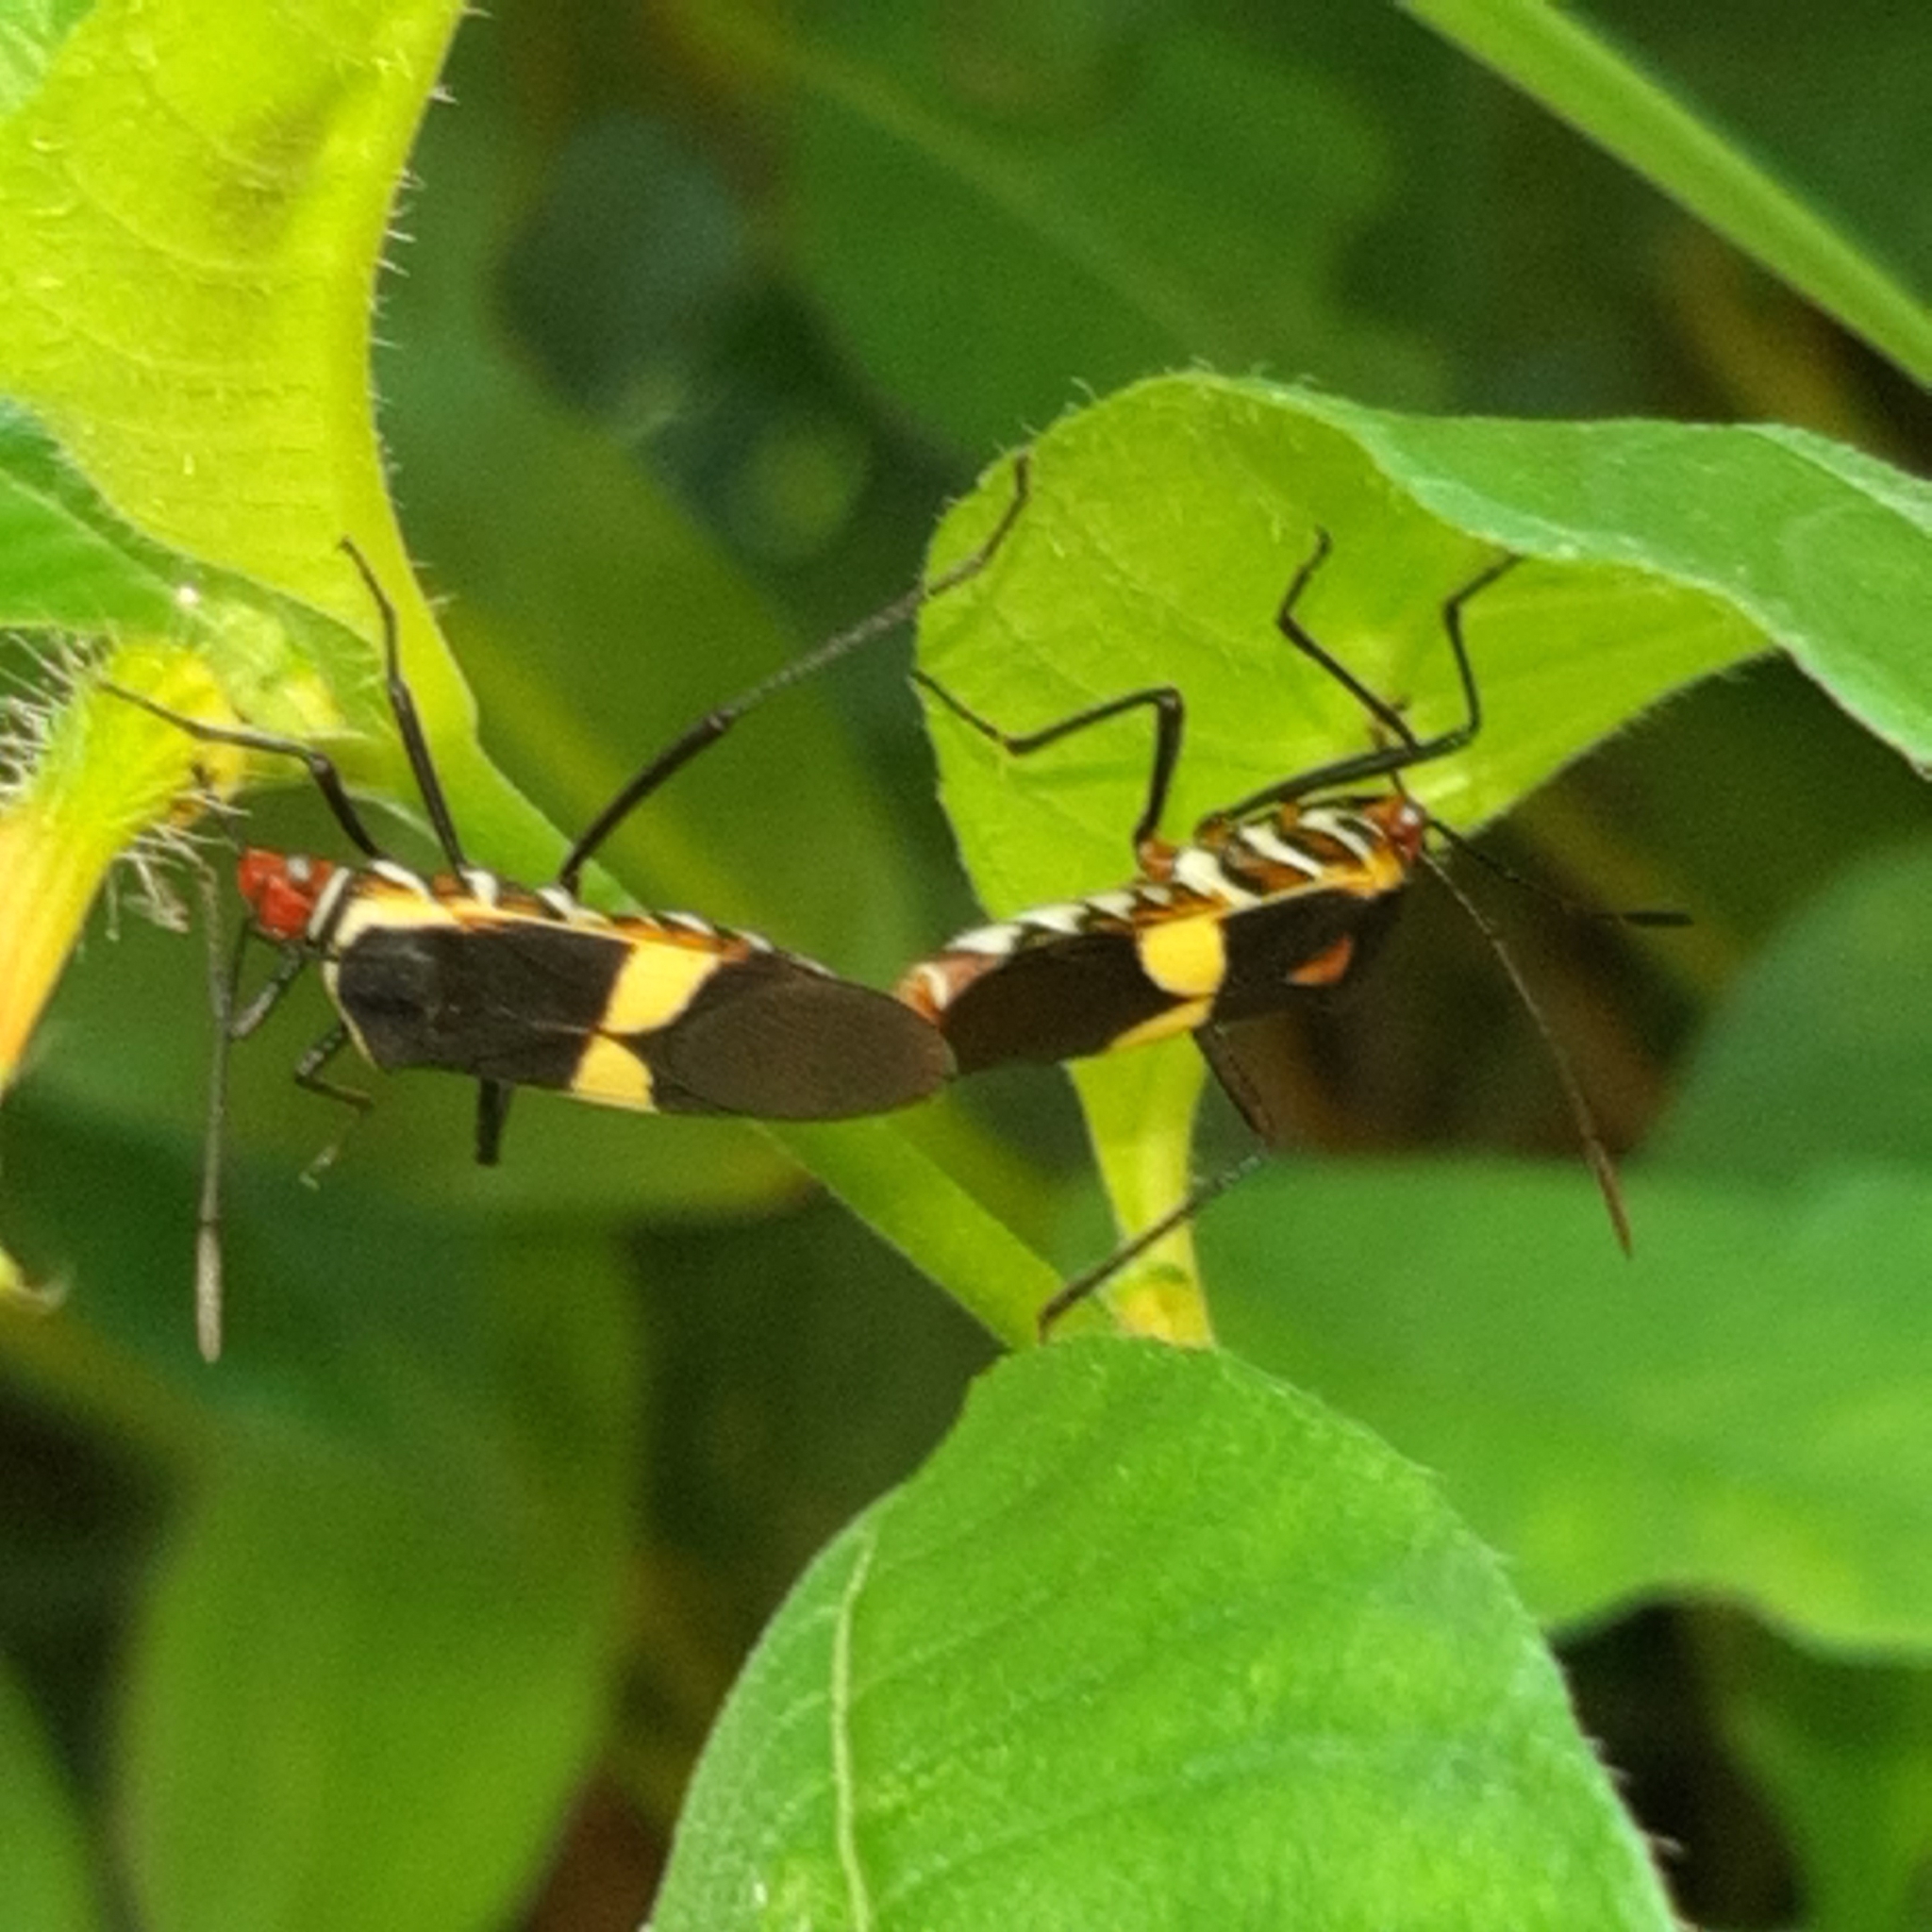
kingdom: Animalia
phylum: Arthropoda
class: Insecta
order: Hemiptera
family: Coreidae
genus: Hypselonotus
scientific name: Hypselonotus interruptus
